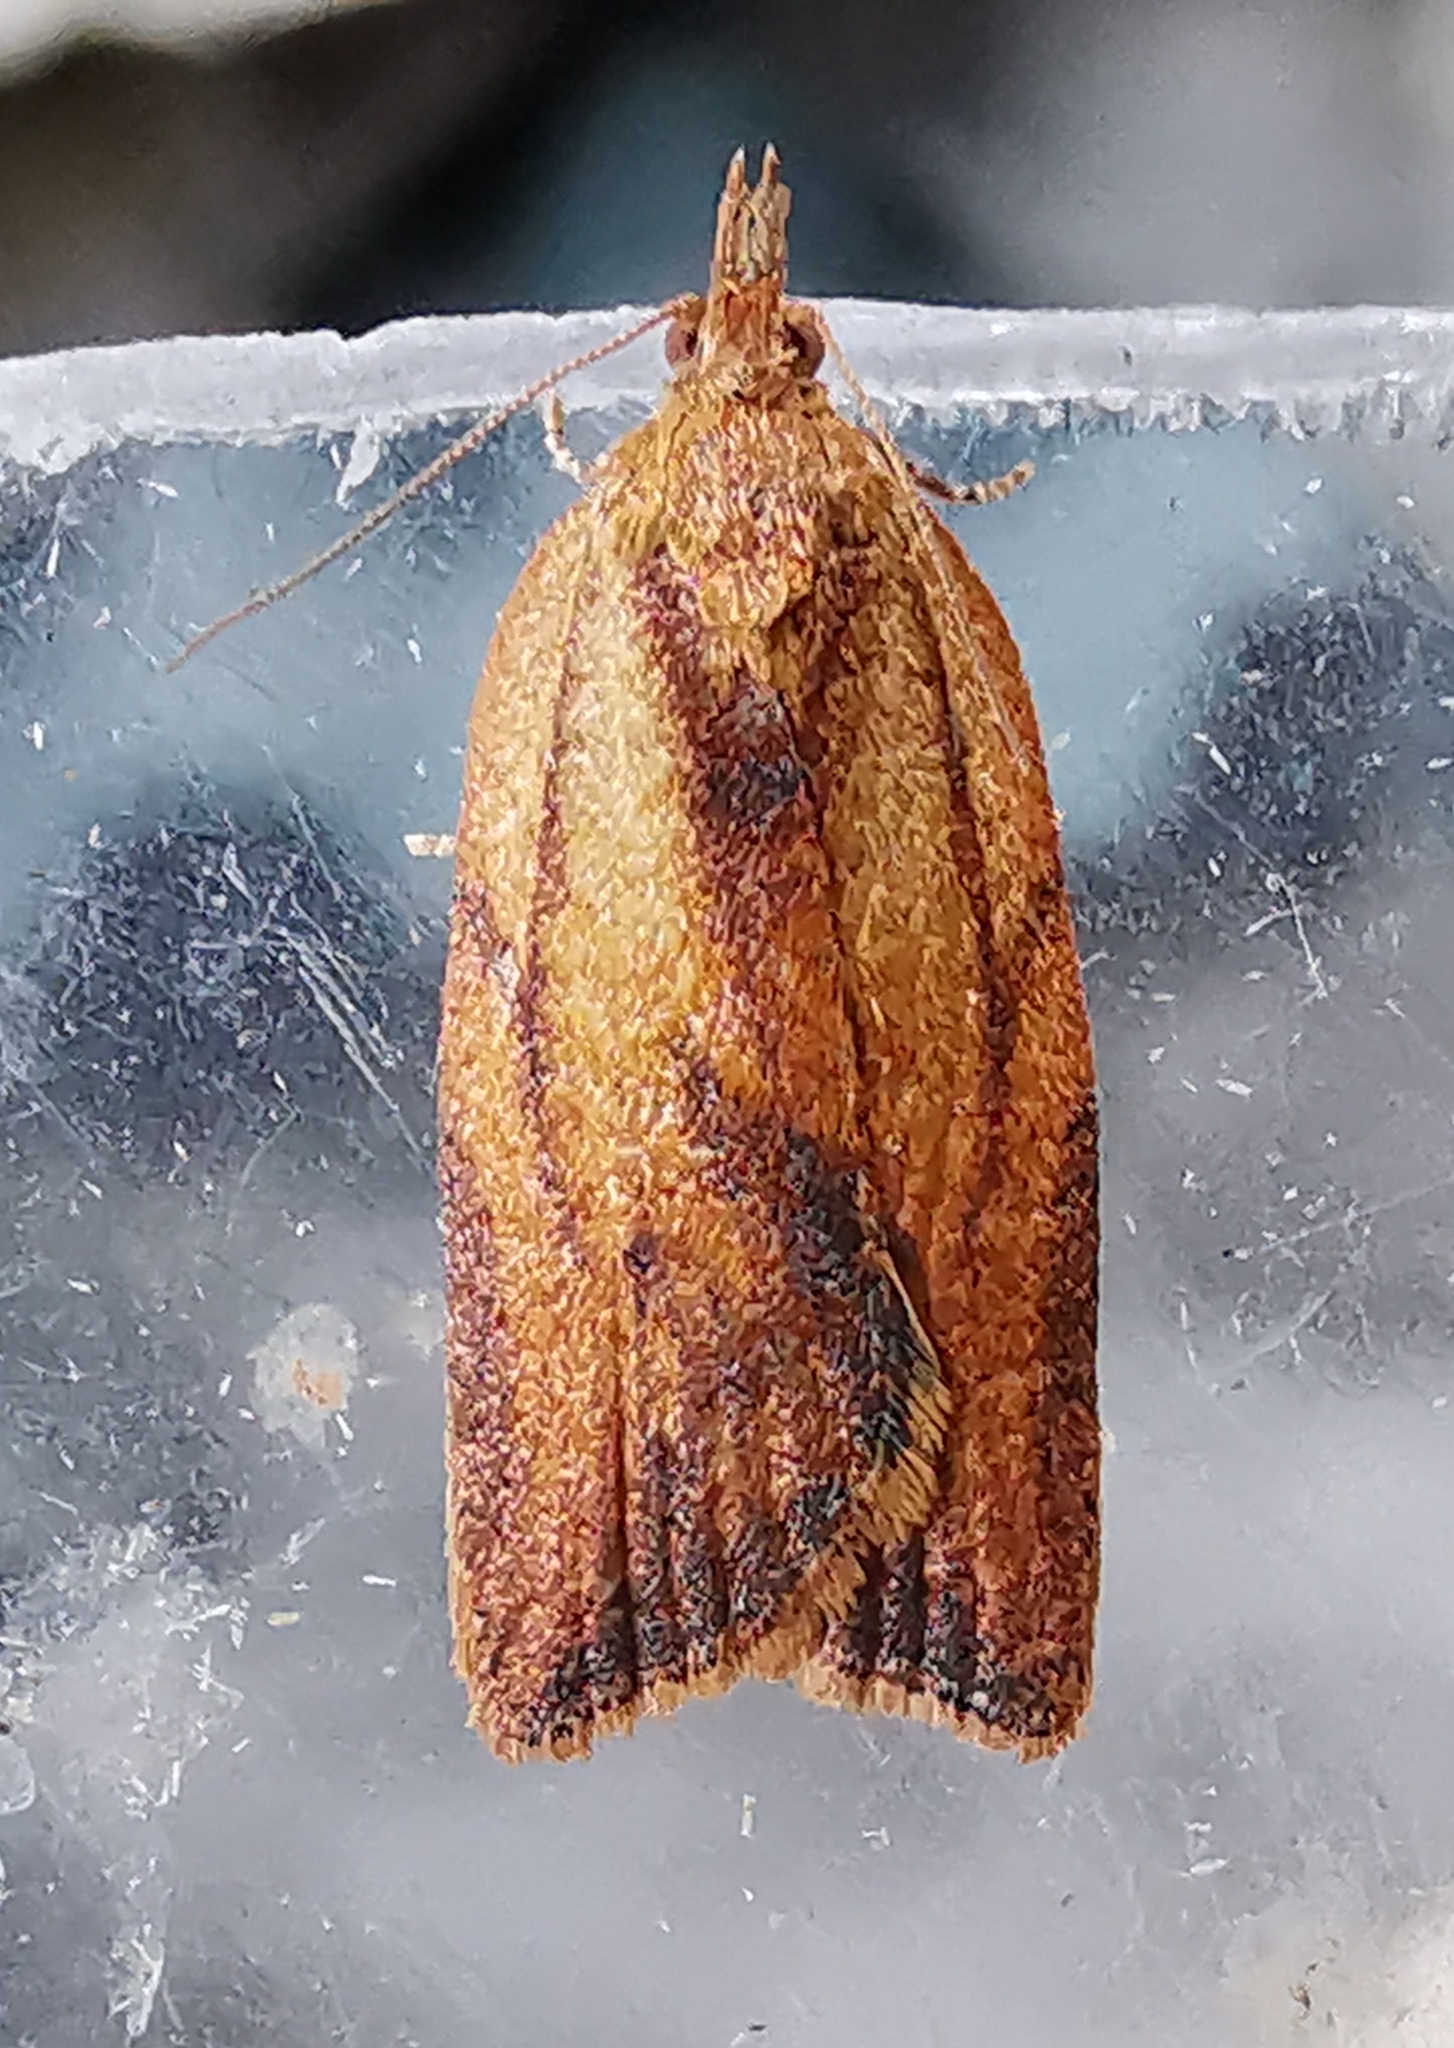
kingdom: Animalia
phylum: Arthropoda
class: Insecta
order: Lepidoptera
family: Tortricidae
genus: Epiphyas
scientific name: Epiphyas postvittana
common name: Light brown apple moth
